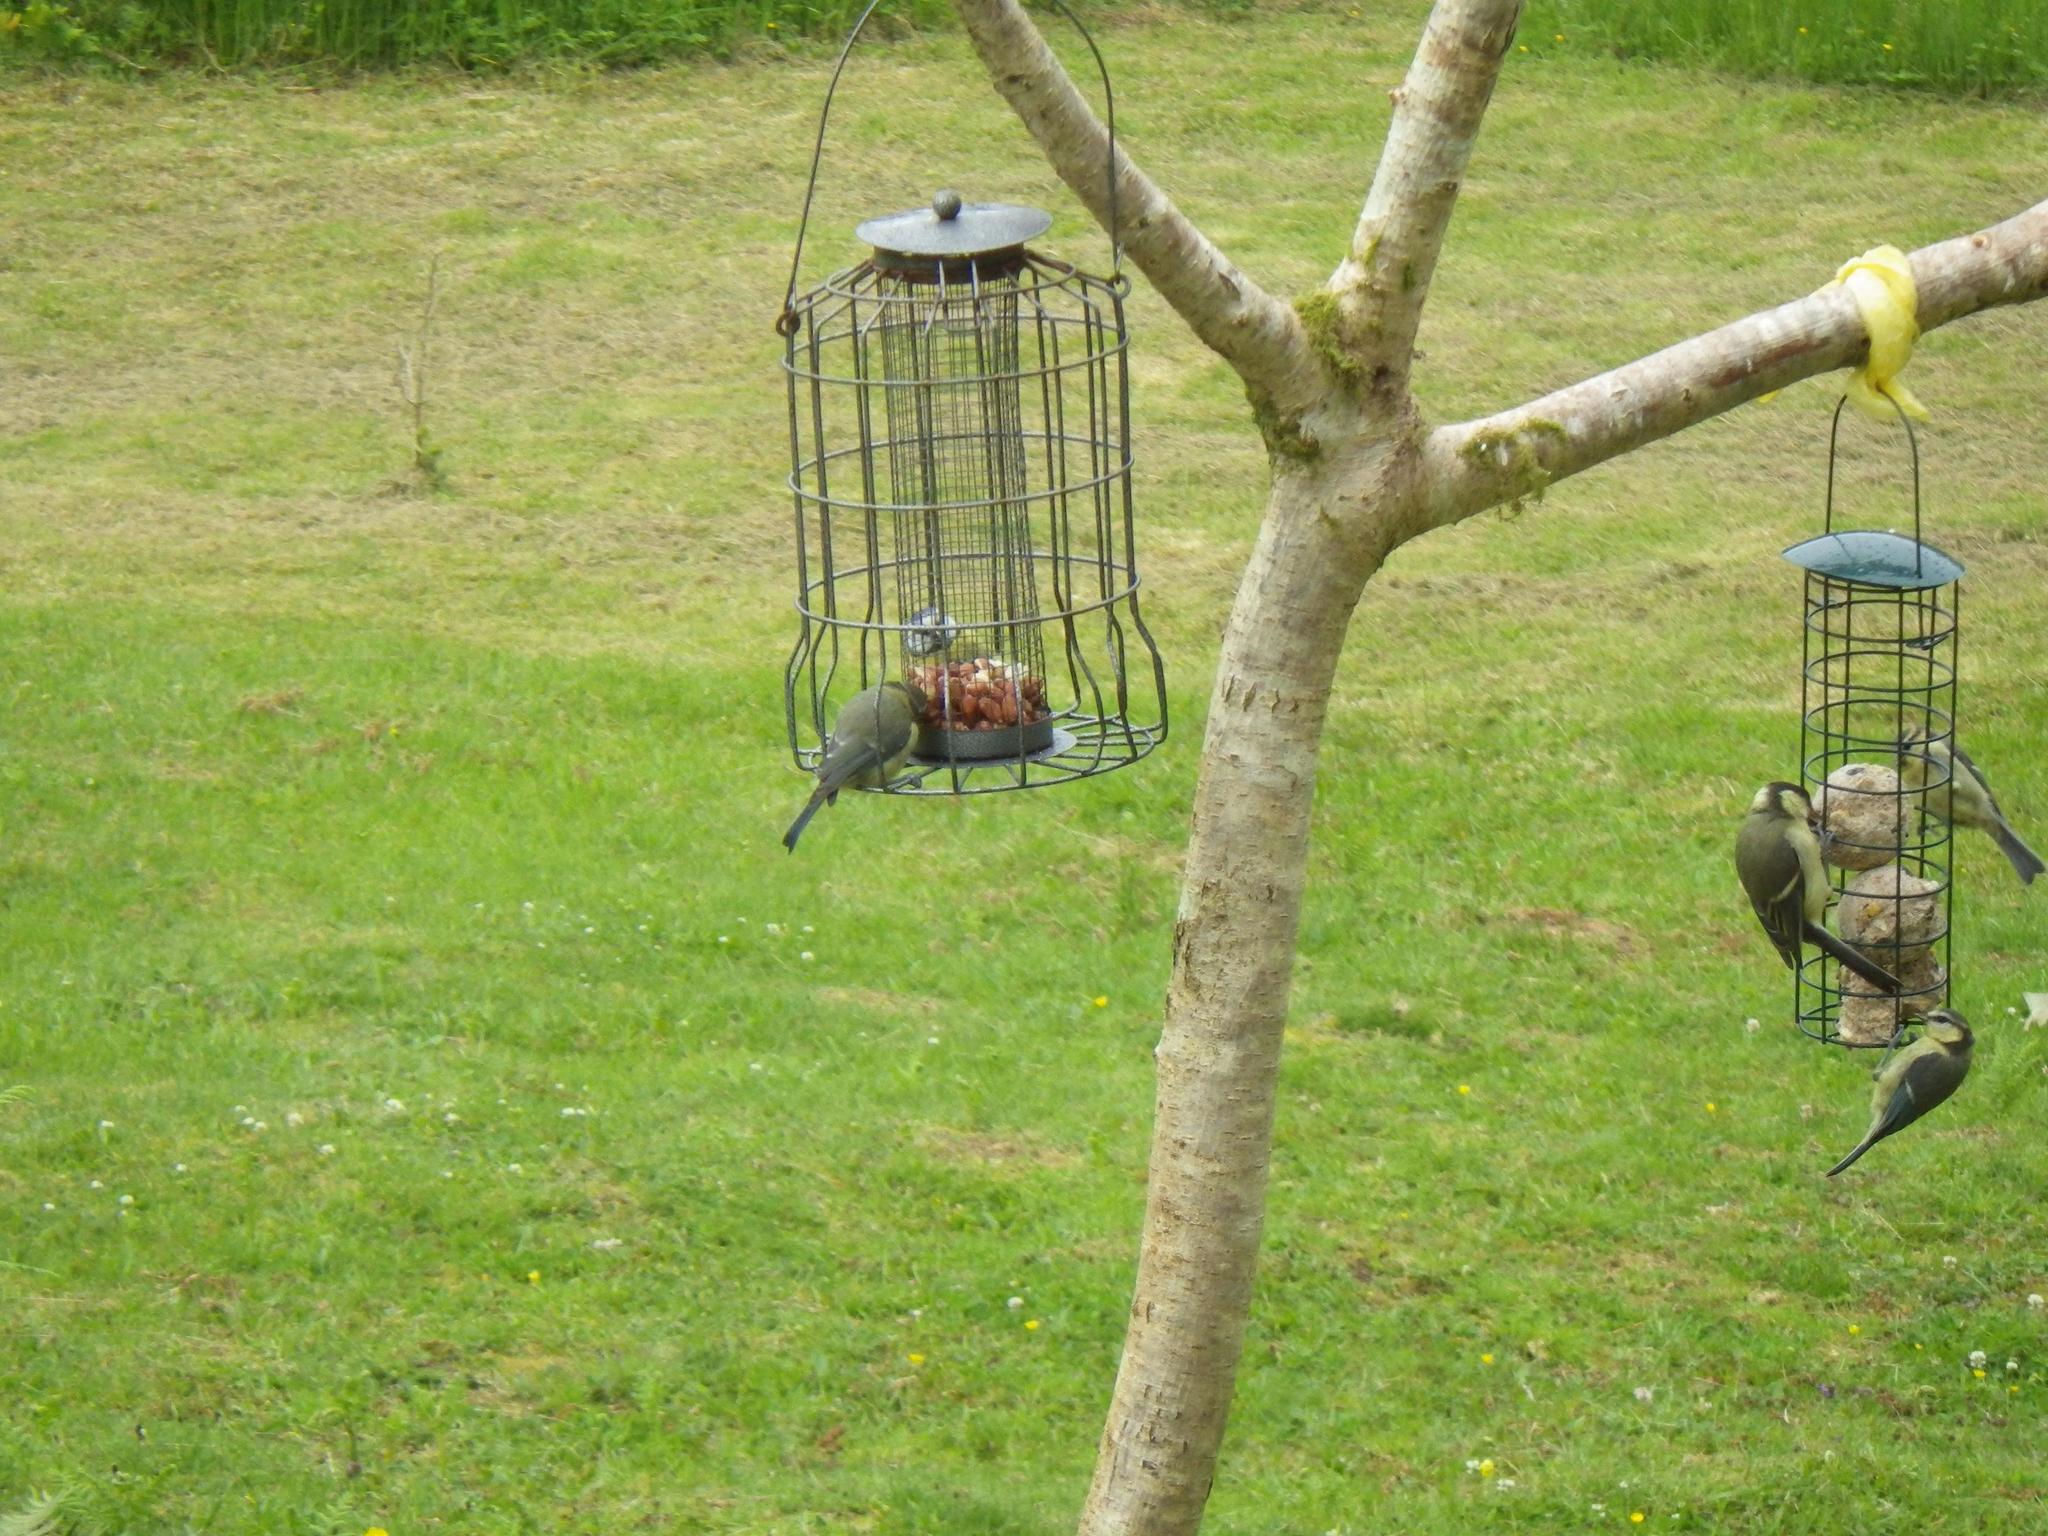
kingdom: Animalia
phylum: Chordata
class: Aves
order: Passeriformes
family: Paridae
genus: Cyanistes
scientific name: Cyanistes caeruleus
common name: Eurasian blue tit
